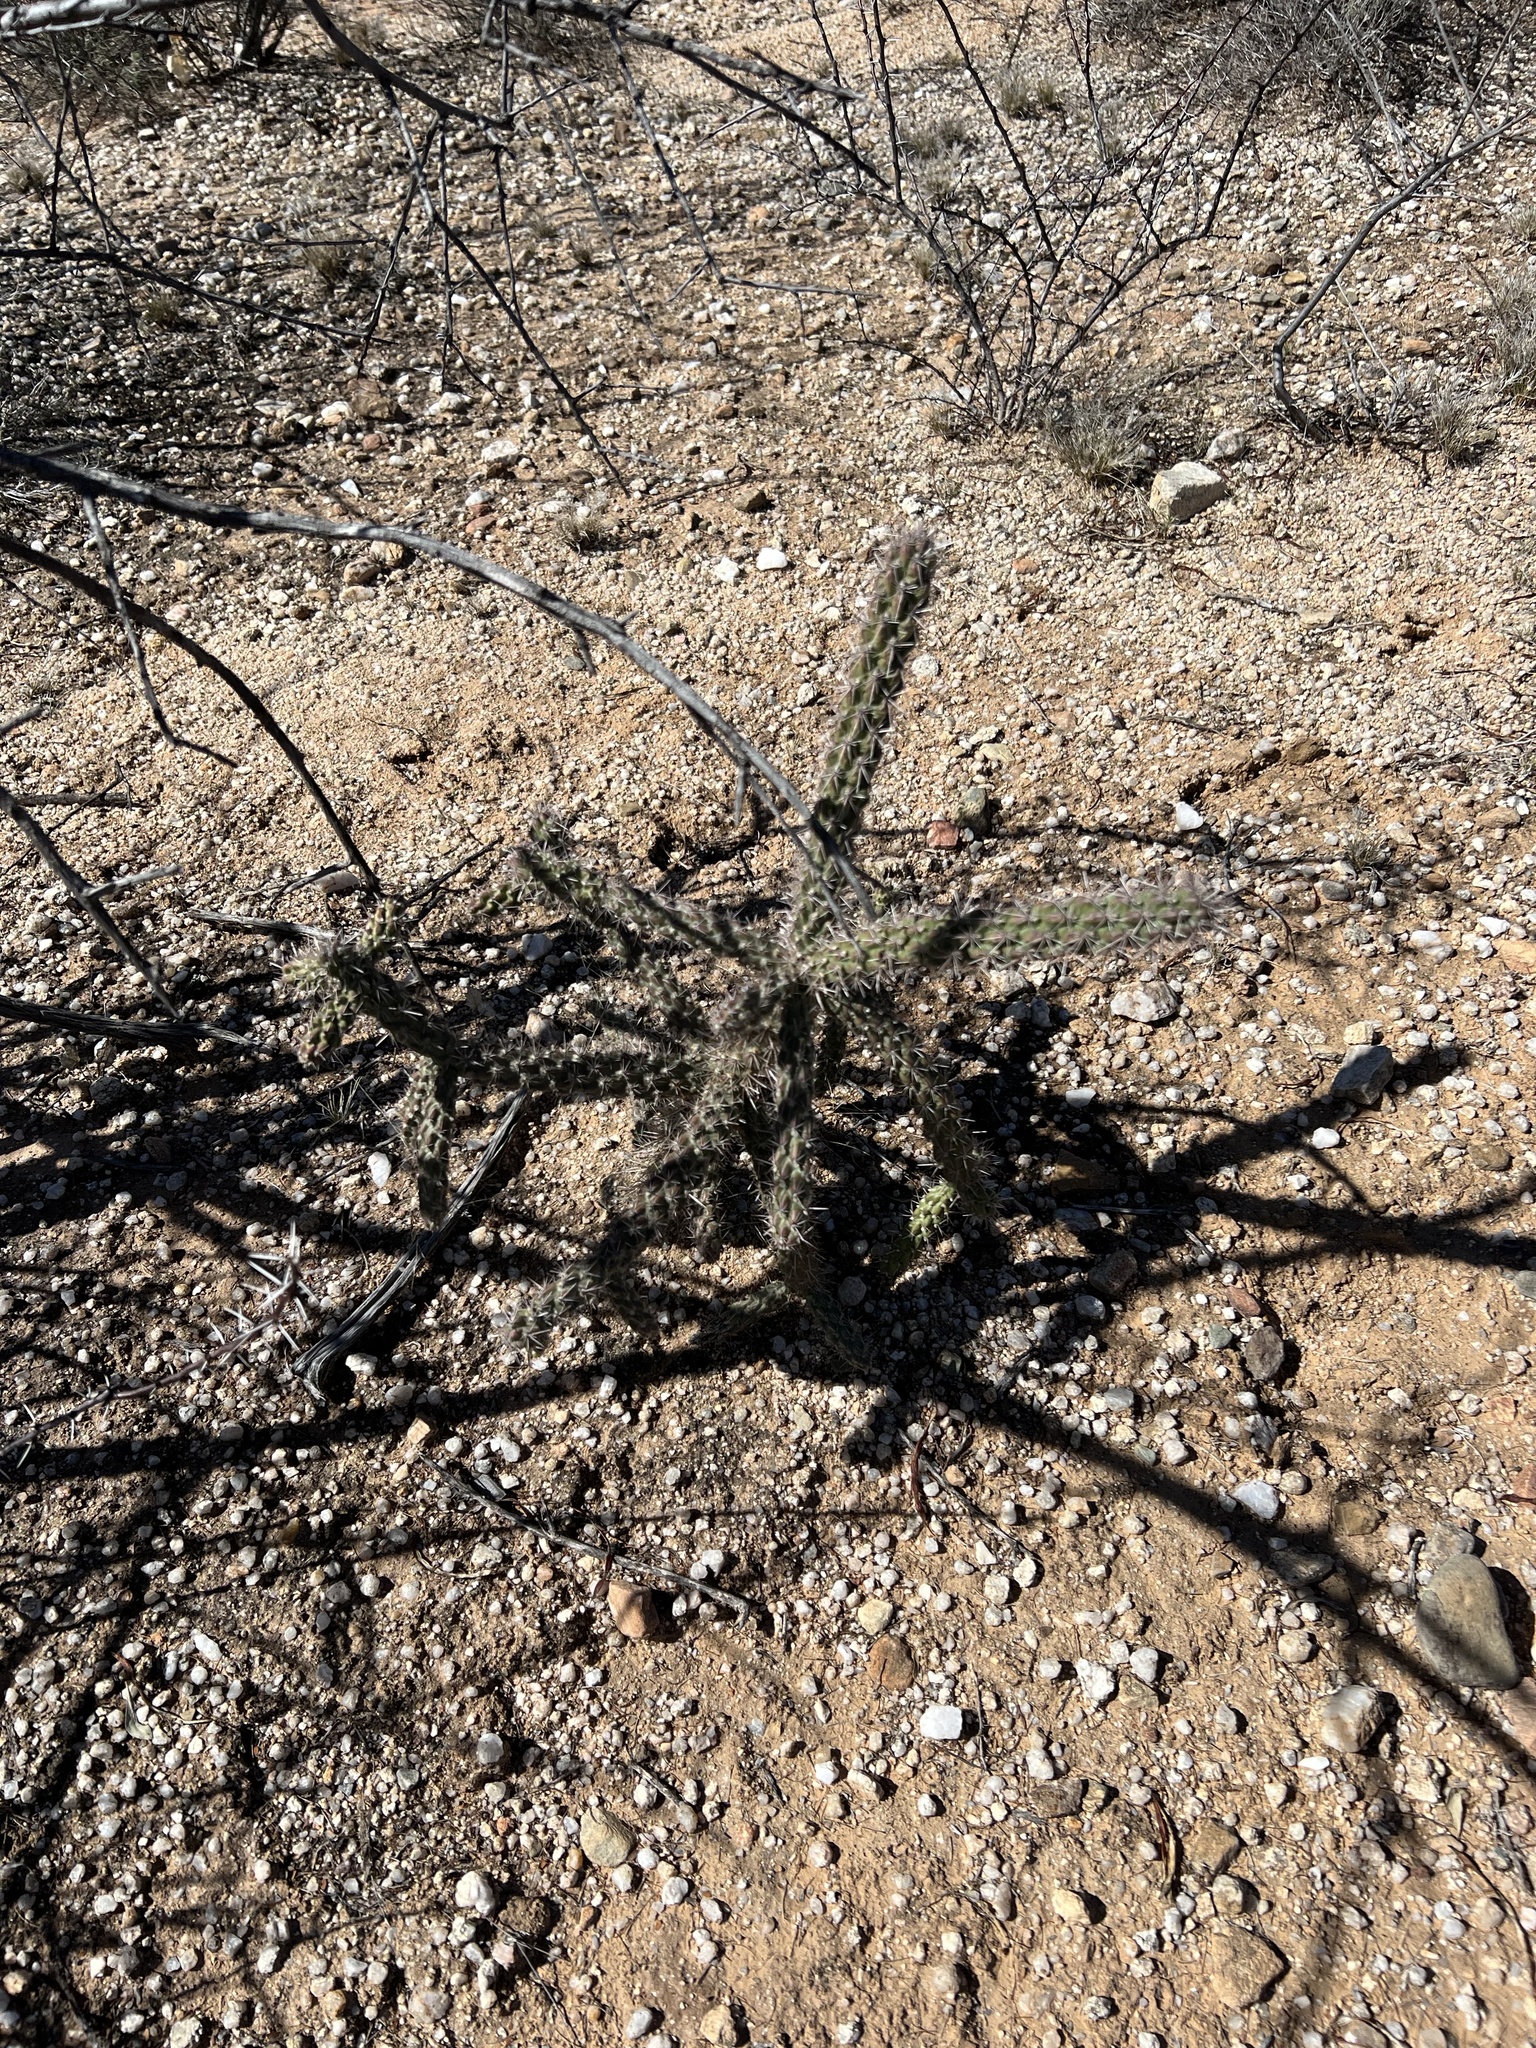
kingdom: Plantae
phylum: Tracheophyta
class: Magnoliopsida
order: Caryophyllales
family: Cactaceae
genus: Cylindropuntia
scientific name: Cylindropuntia imbricata
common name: Candelabrum cactus
